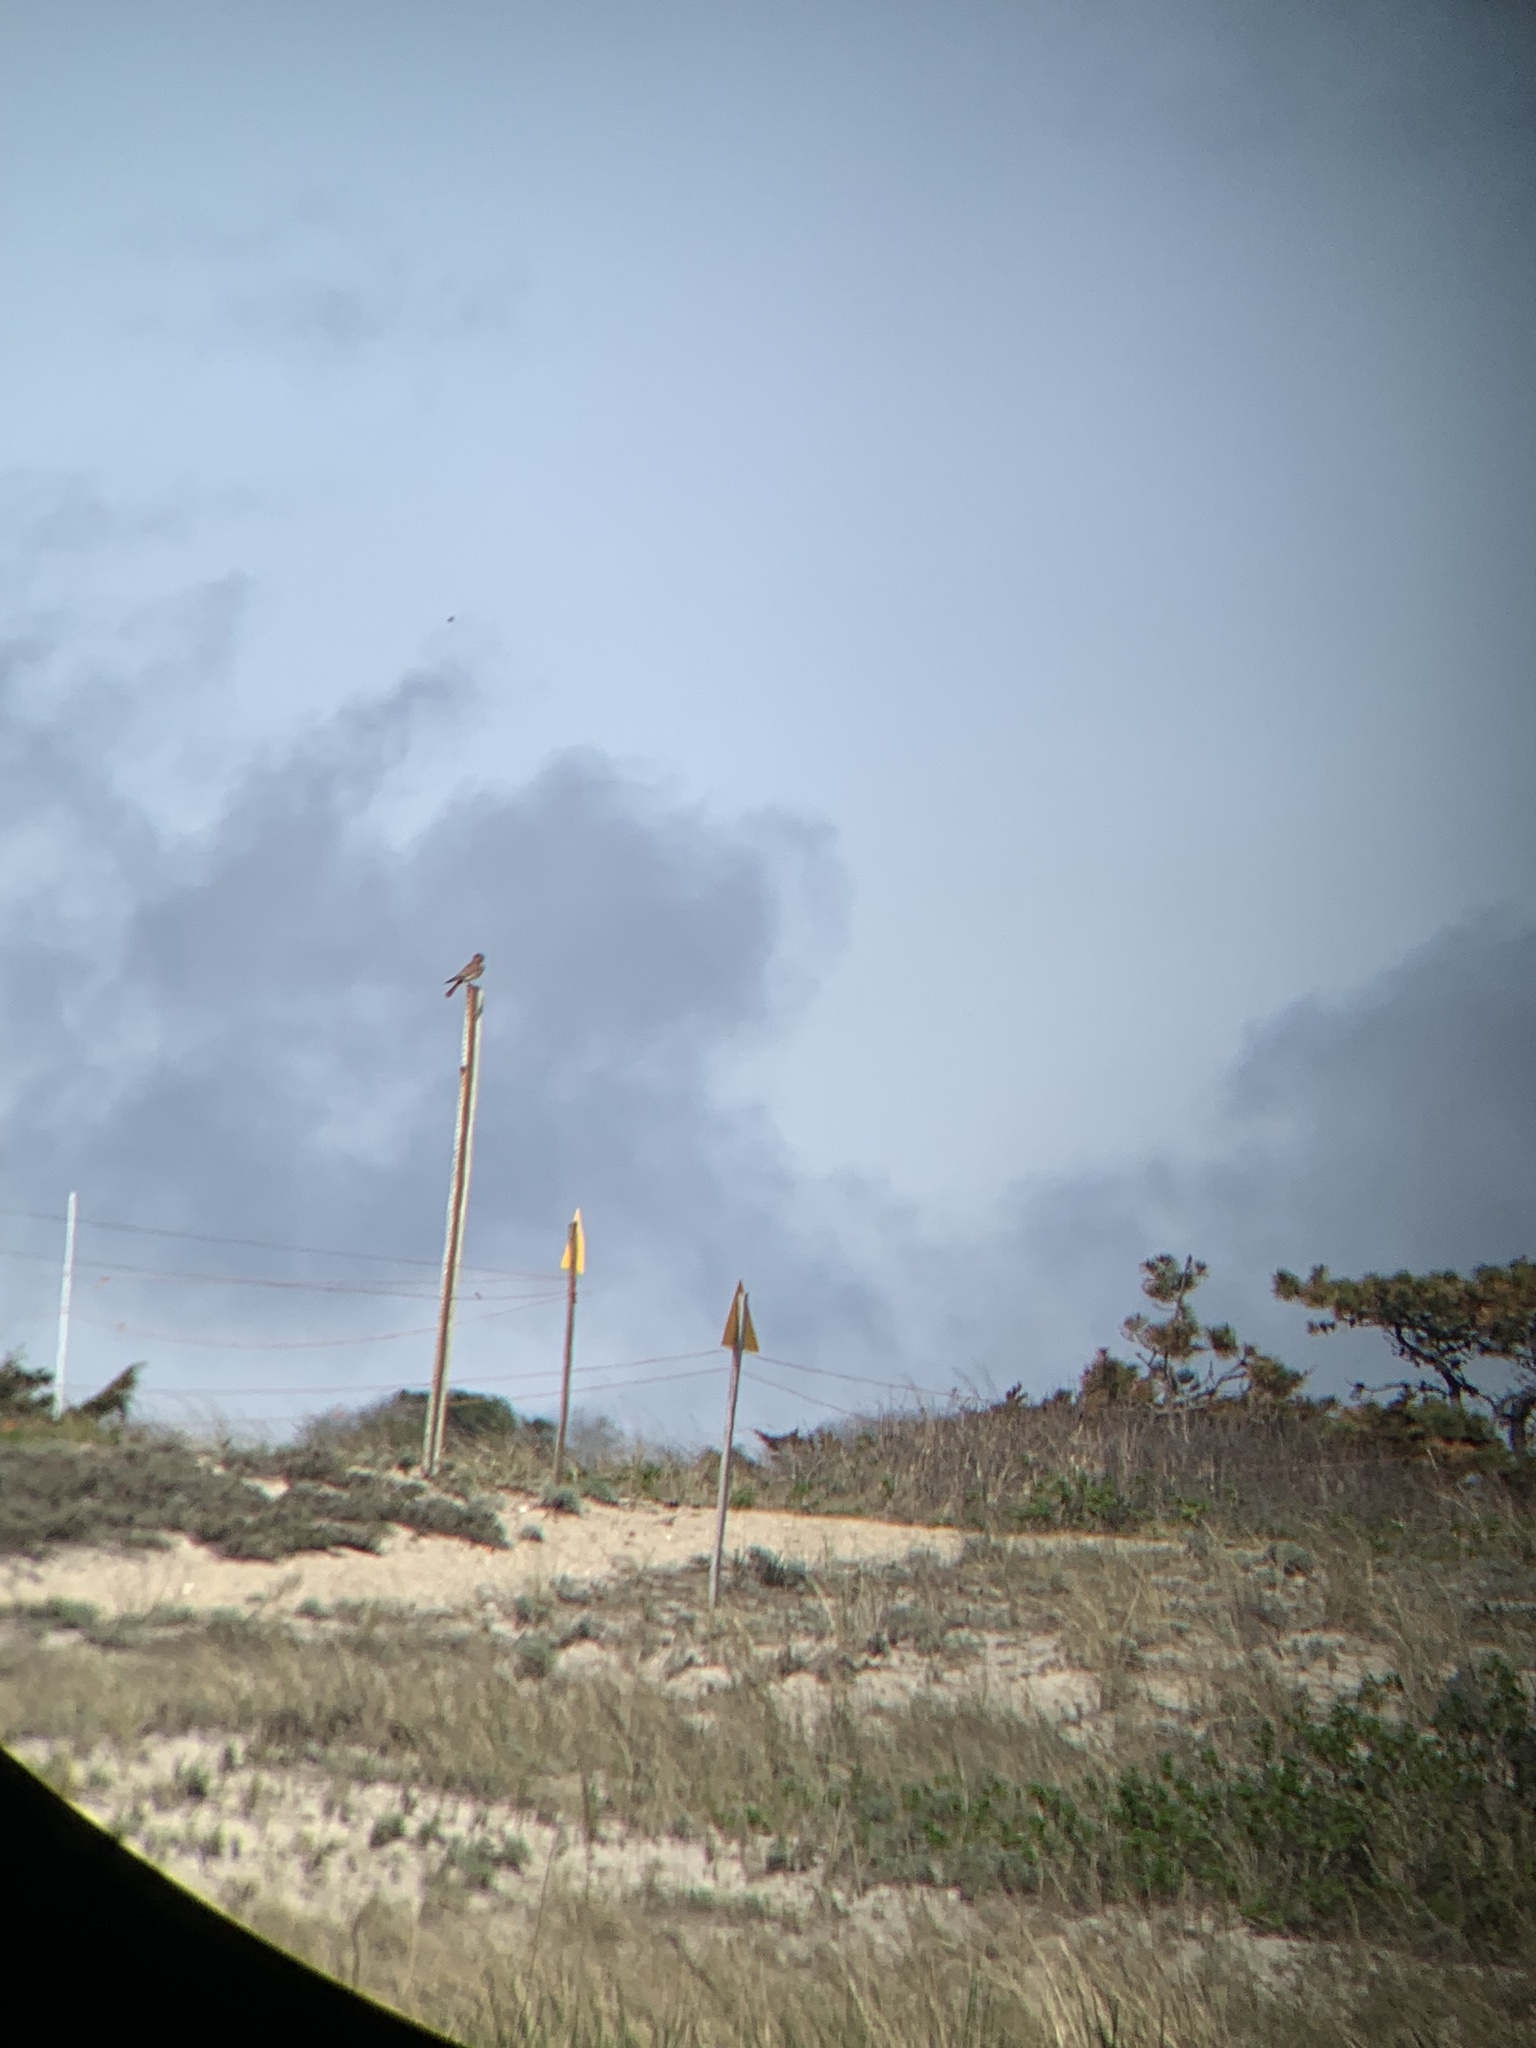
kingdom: Animalia
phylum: Chordata
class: Aves
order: Falconiformes
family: Falconidae
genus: Falco
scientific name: Falco sparverius
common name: American kestrel
